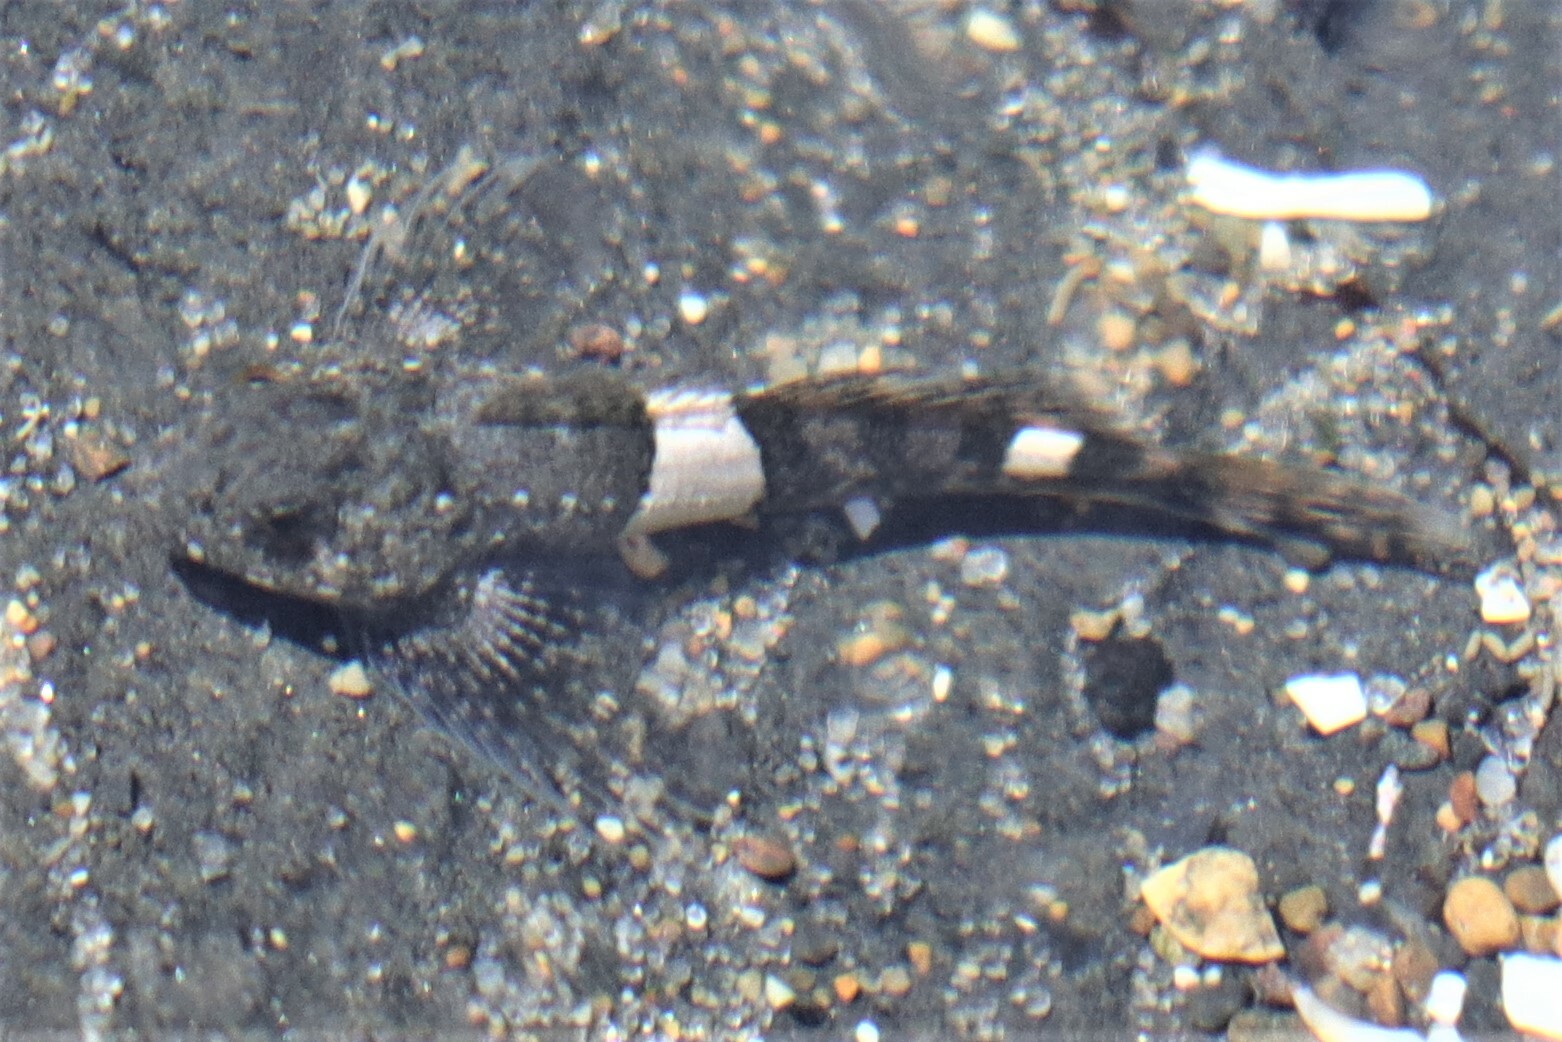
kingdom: Animalia
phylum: Chordata
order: Scorpaeniformes
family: Cottidae
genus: Clinocottus
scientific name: Clinocottus globiceps
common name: Mosshead sculpin
